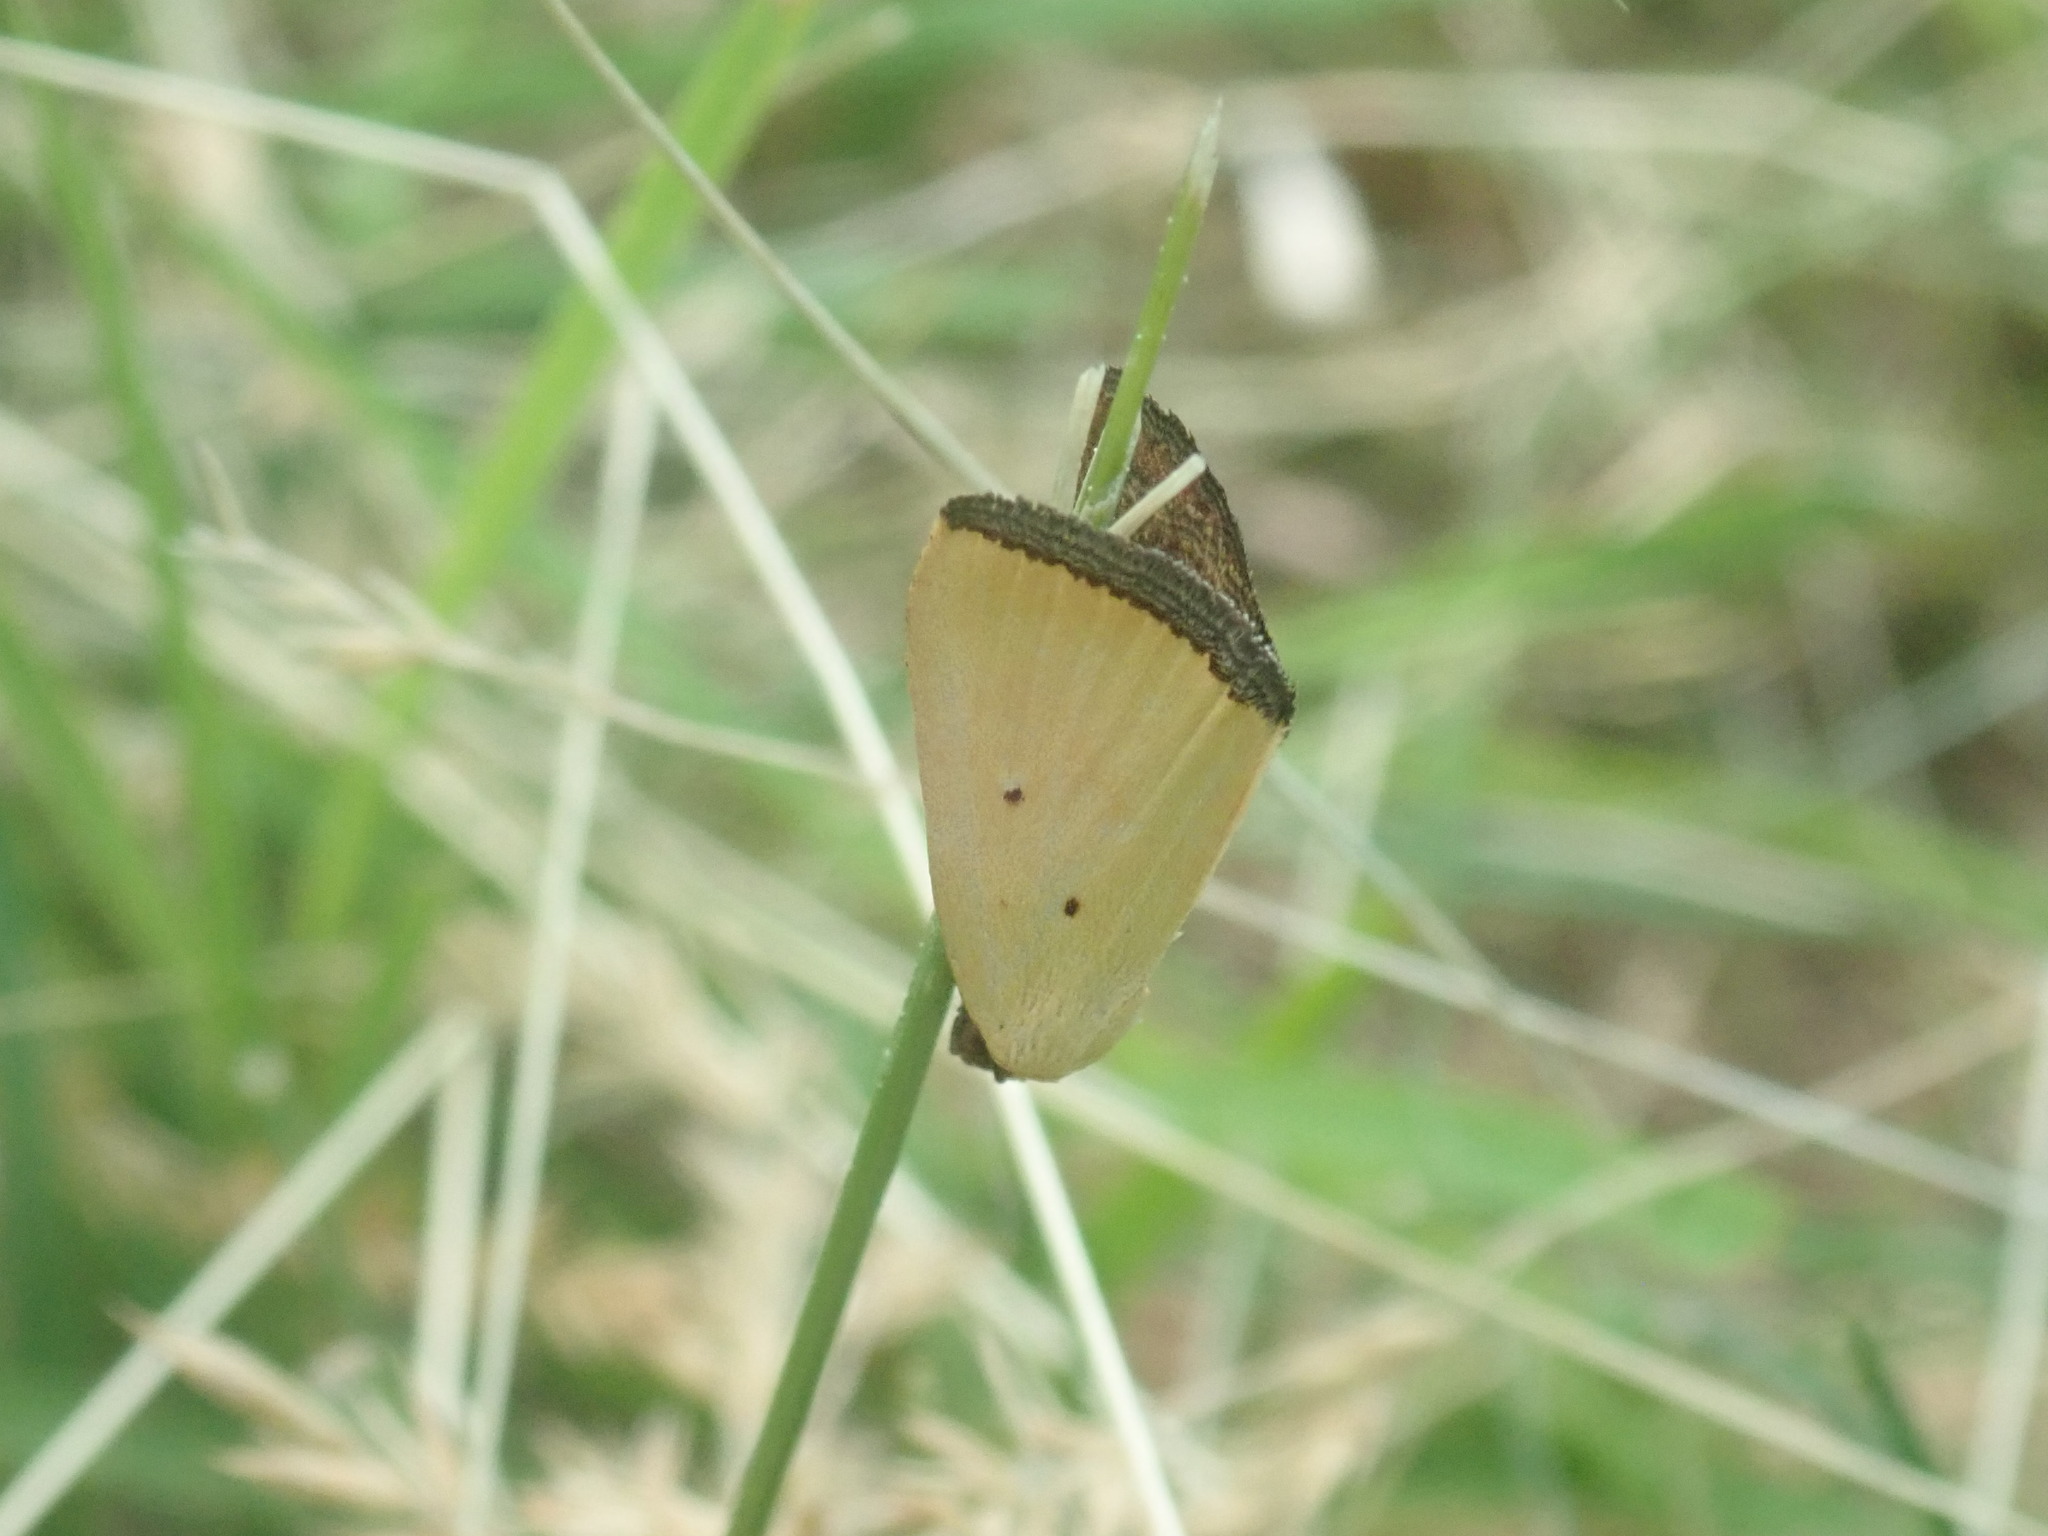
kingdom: Animalia
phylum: Arthropoda
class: Insecta
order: Lepidoptera
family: Noctuidae
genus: Marimatha
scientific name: Marimatha nigrofimbria
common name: Black-bordered lemon moth
